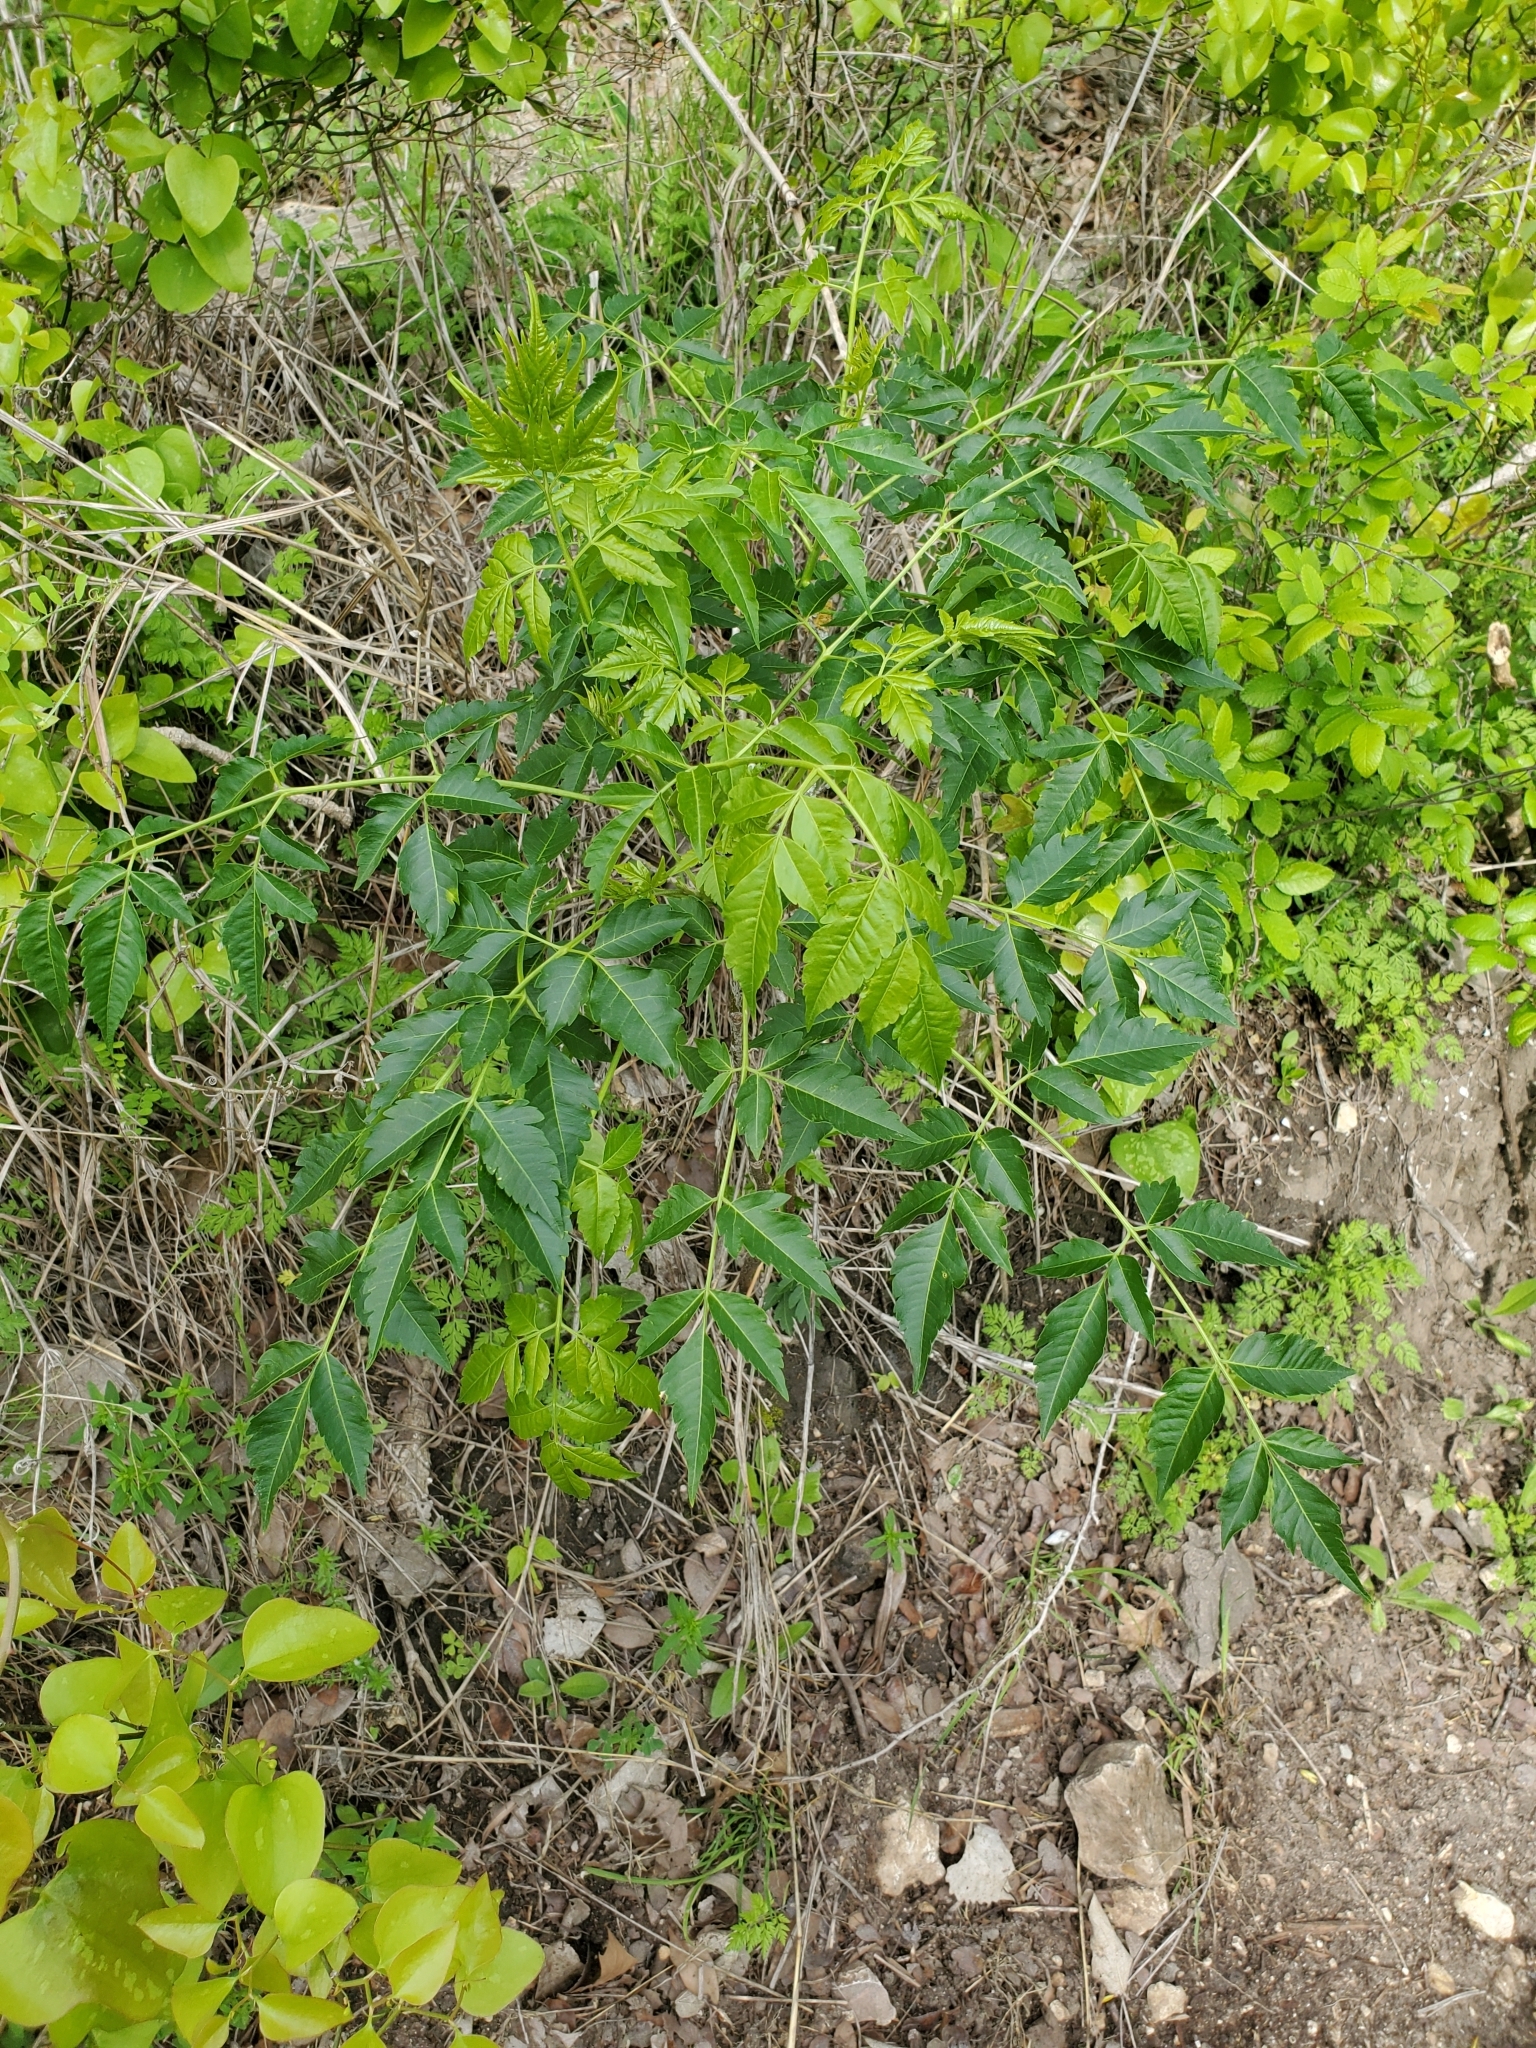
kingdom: Plantae
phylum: Tracheophyta
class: Magnoliopsida
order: Sapindales
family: Meliaceae
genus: Melia
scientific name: Melia azedarach
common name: Chinaberrytree
